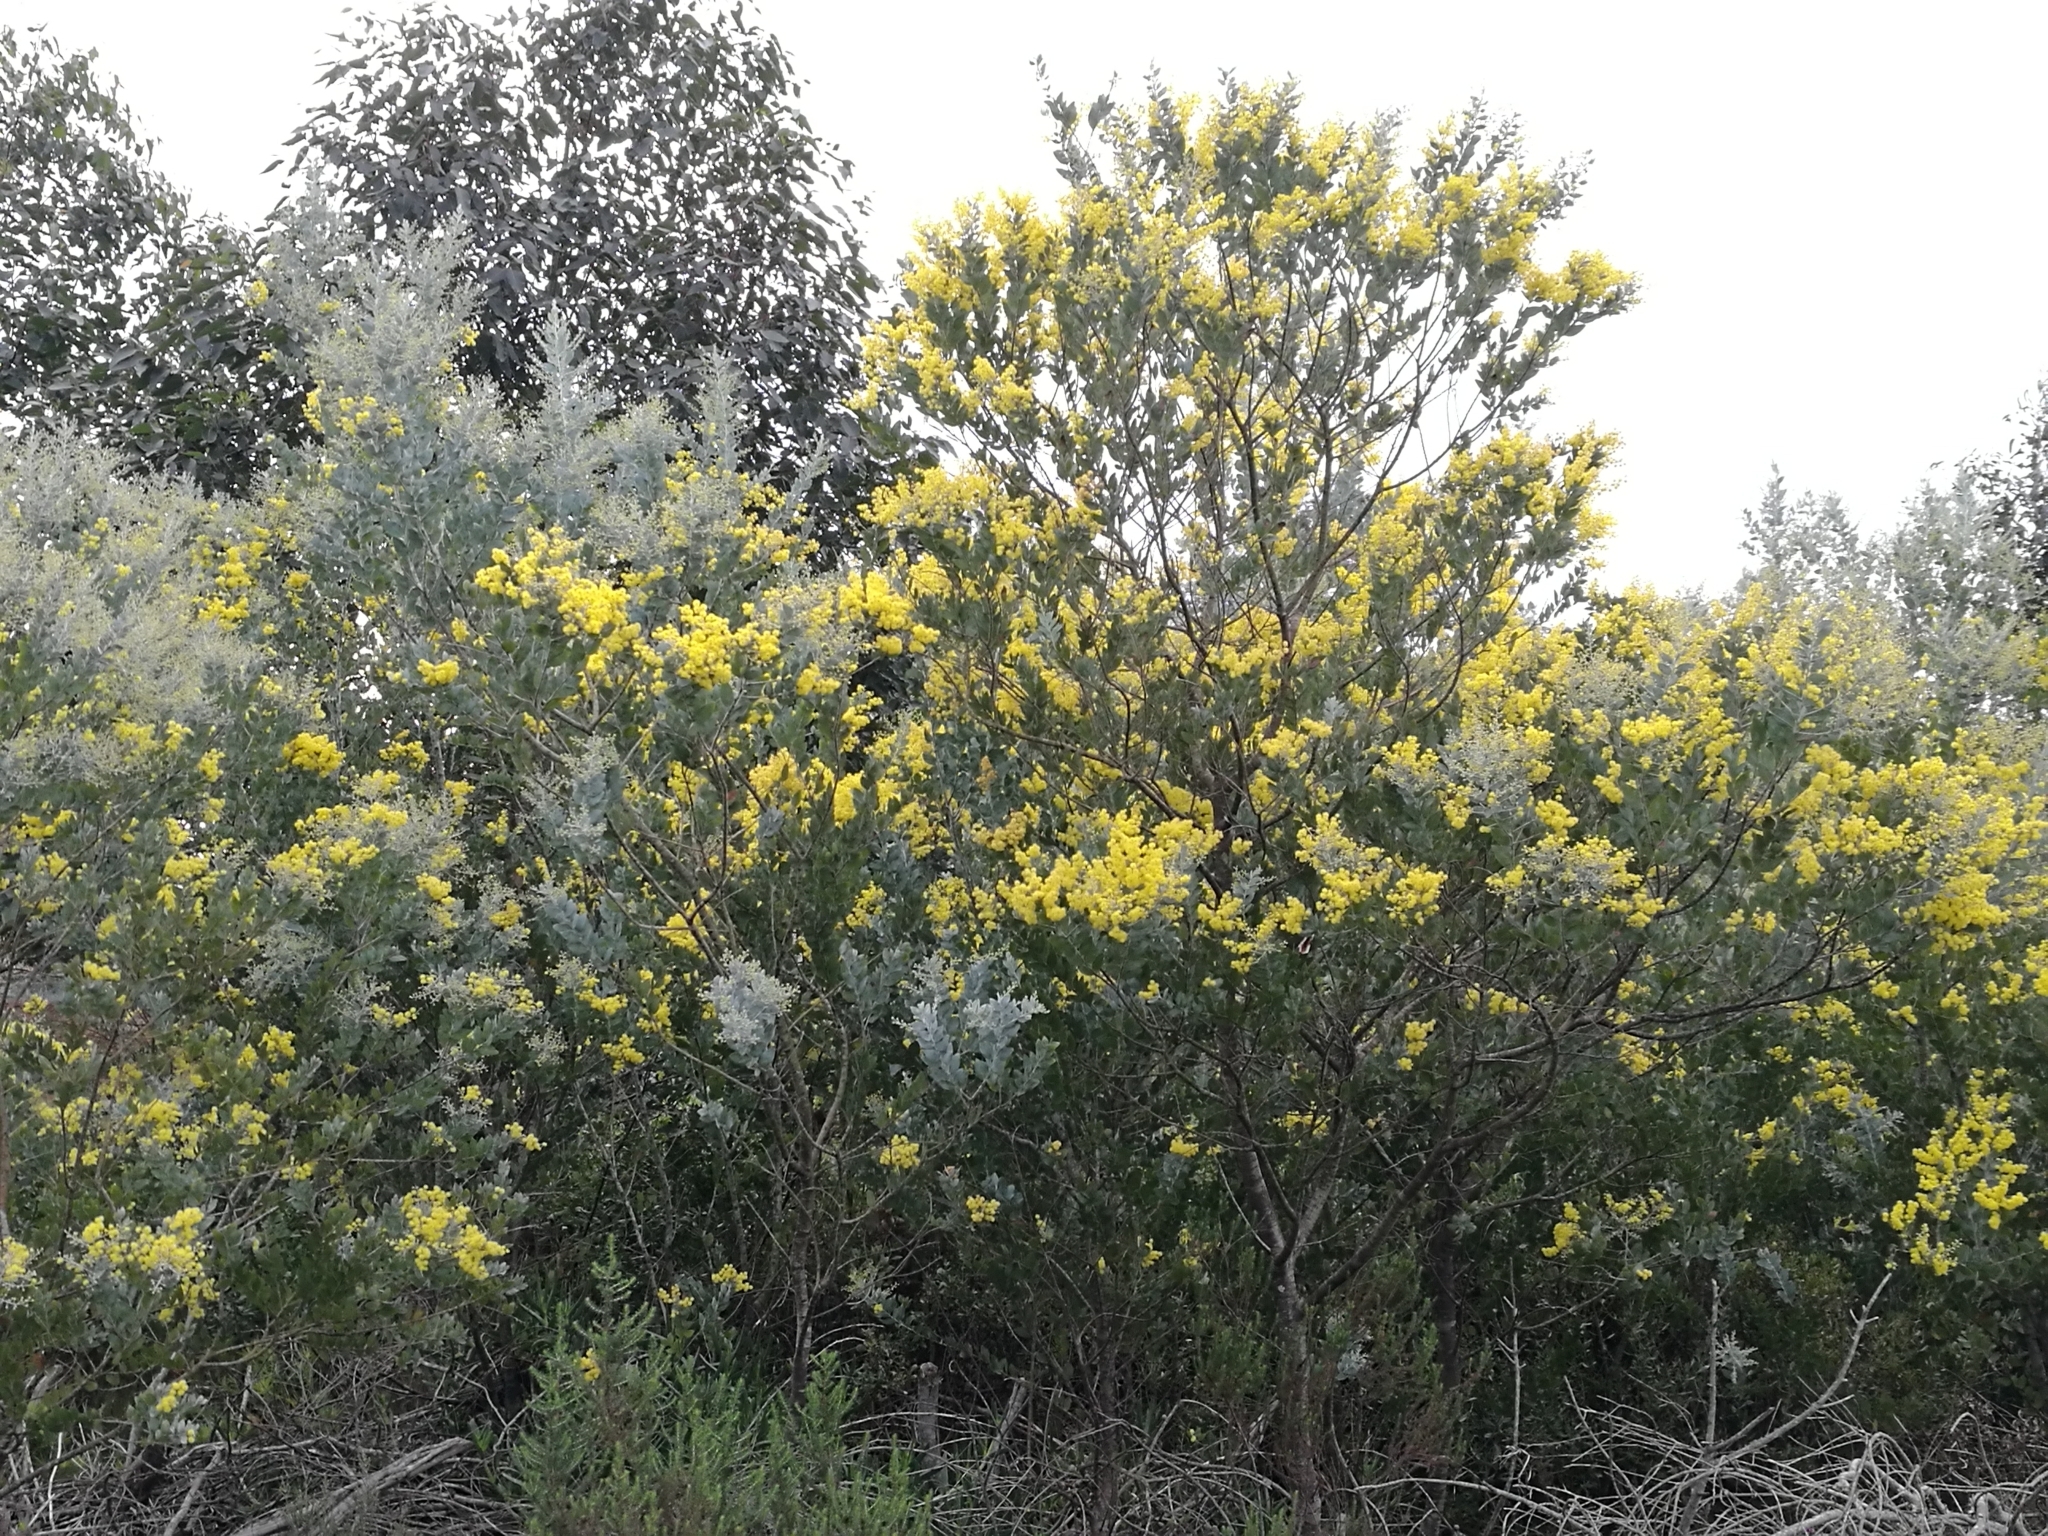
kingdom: Plantae
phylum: Tracheophyta
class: Magnoliopsida
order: Fabales
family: Fabaceae
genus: Acacia
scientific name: Acacia podalyriifolia
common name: Pearl wattle
